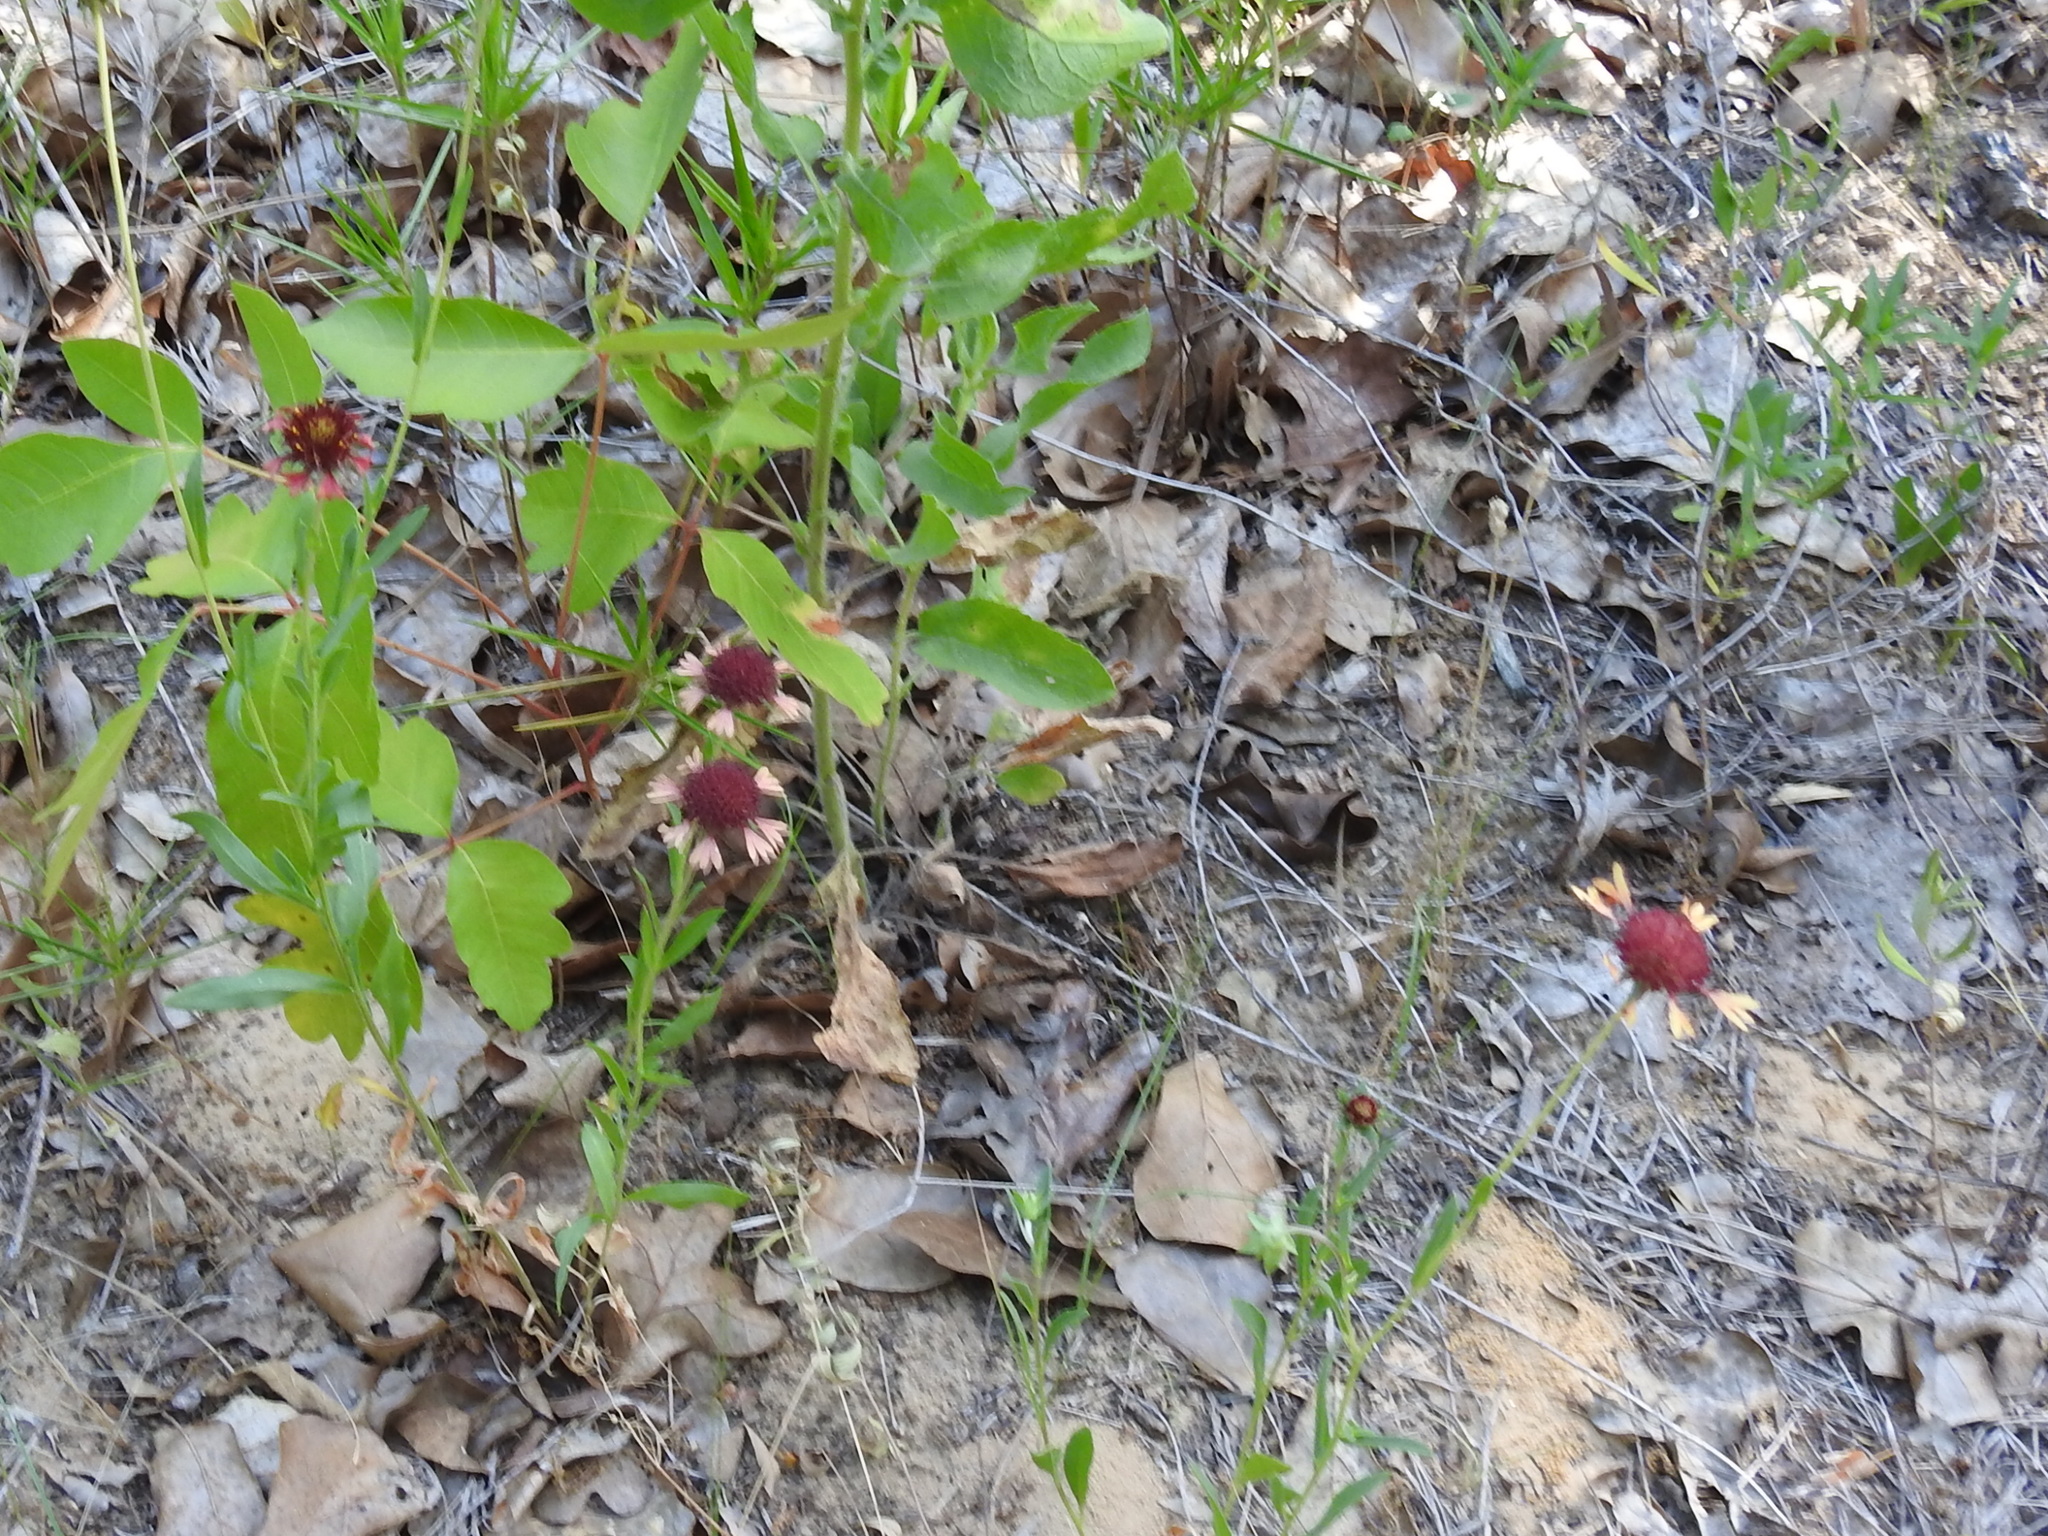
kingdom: Plantae
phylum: Tracheophyta
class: Magnoliopsida
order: Asterales
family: Asteraceae
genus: Gaillardia
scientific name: Gaillardia aestivalis
